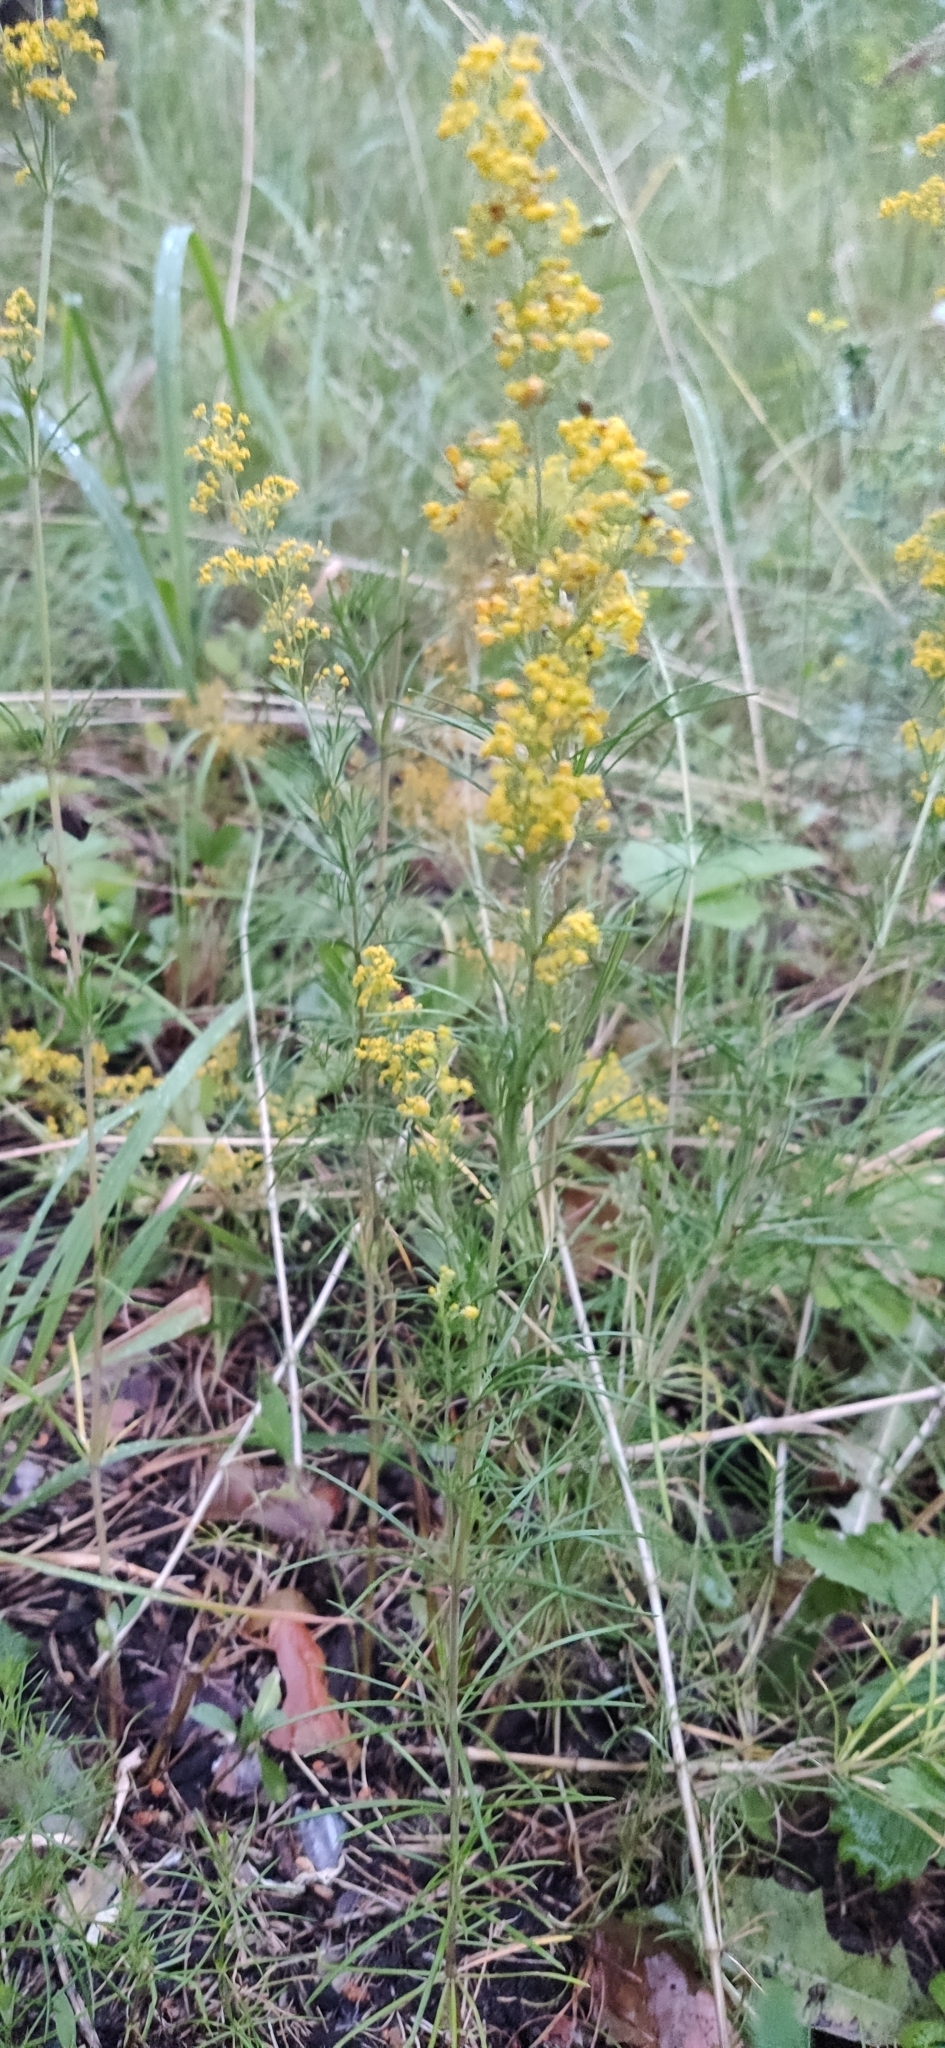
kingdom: Plantae
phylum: Tracheophyta
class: Magnoliopsida
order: Gentianales
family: Rubiaceae
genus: Galium
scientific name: Galium verum
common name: Lady's bedstraw
